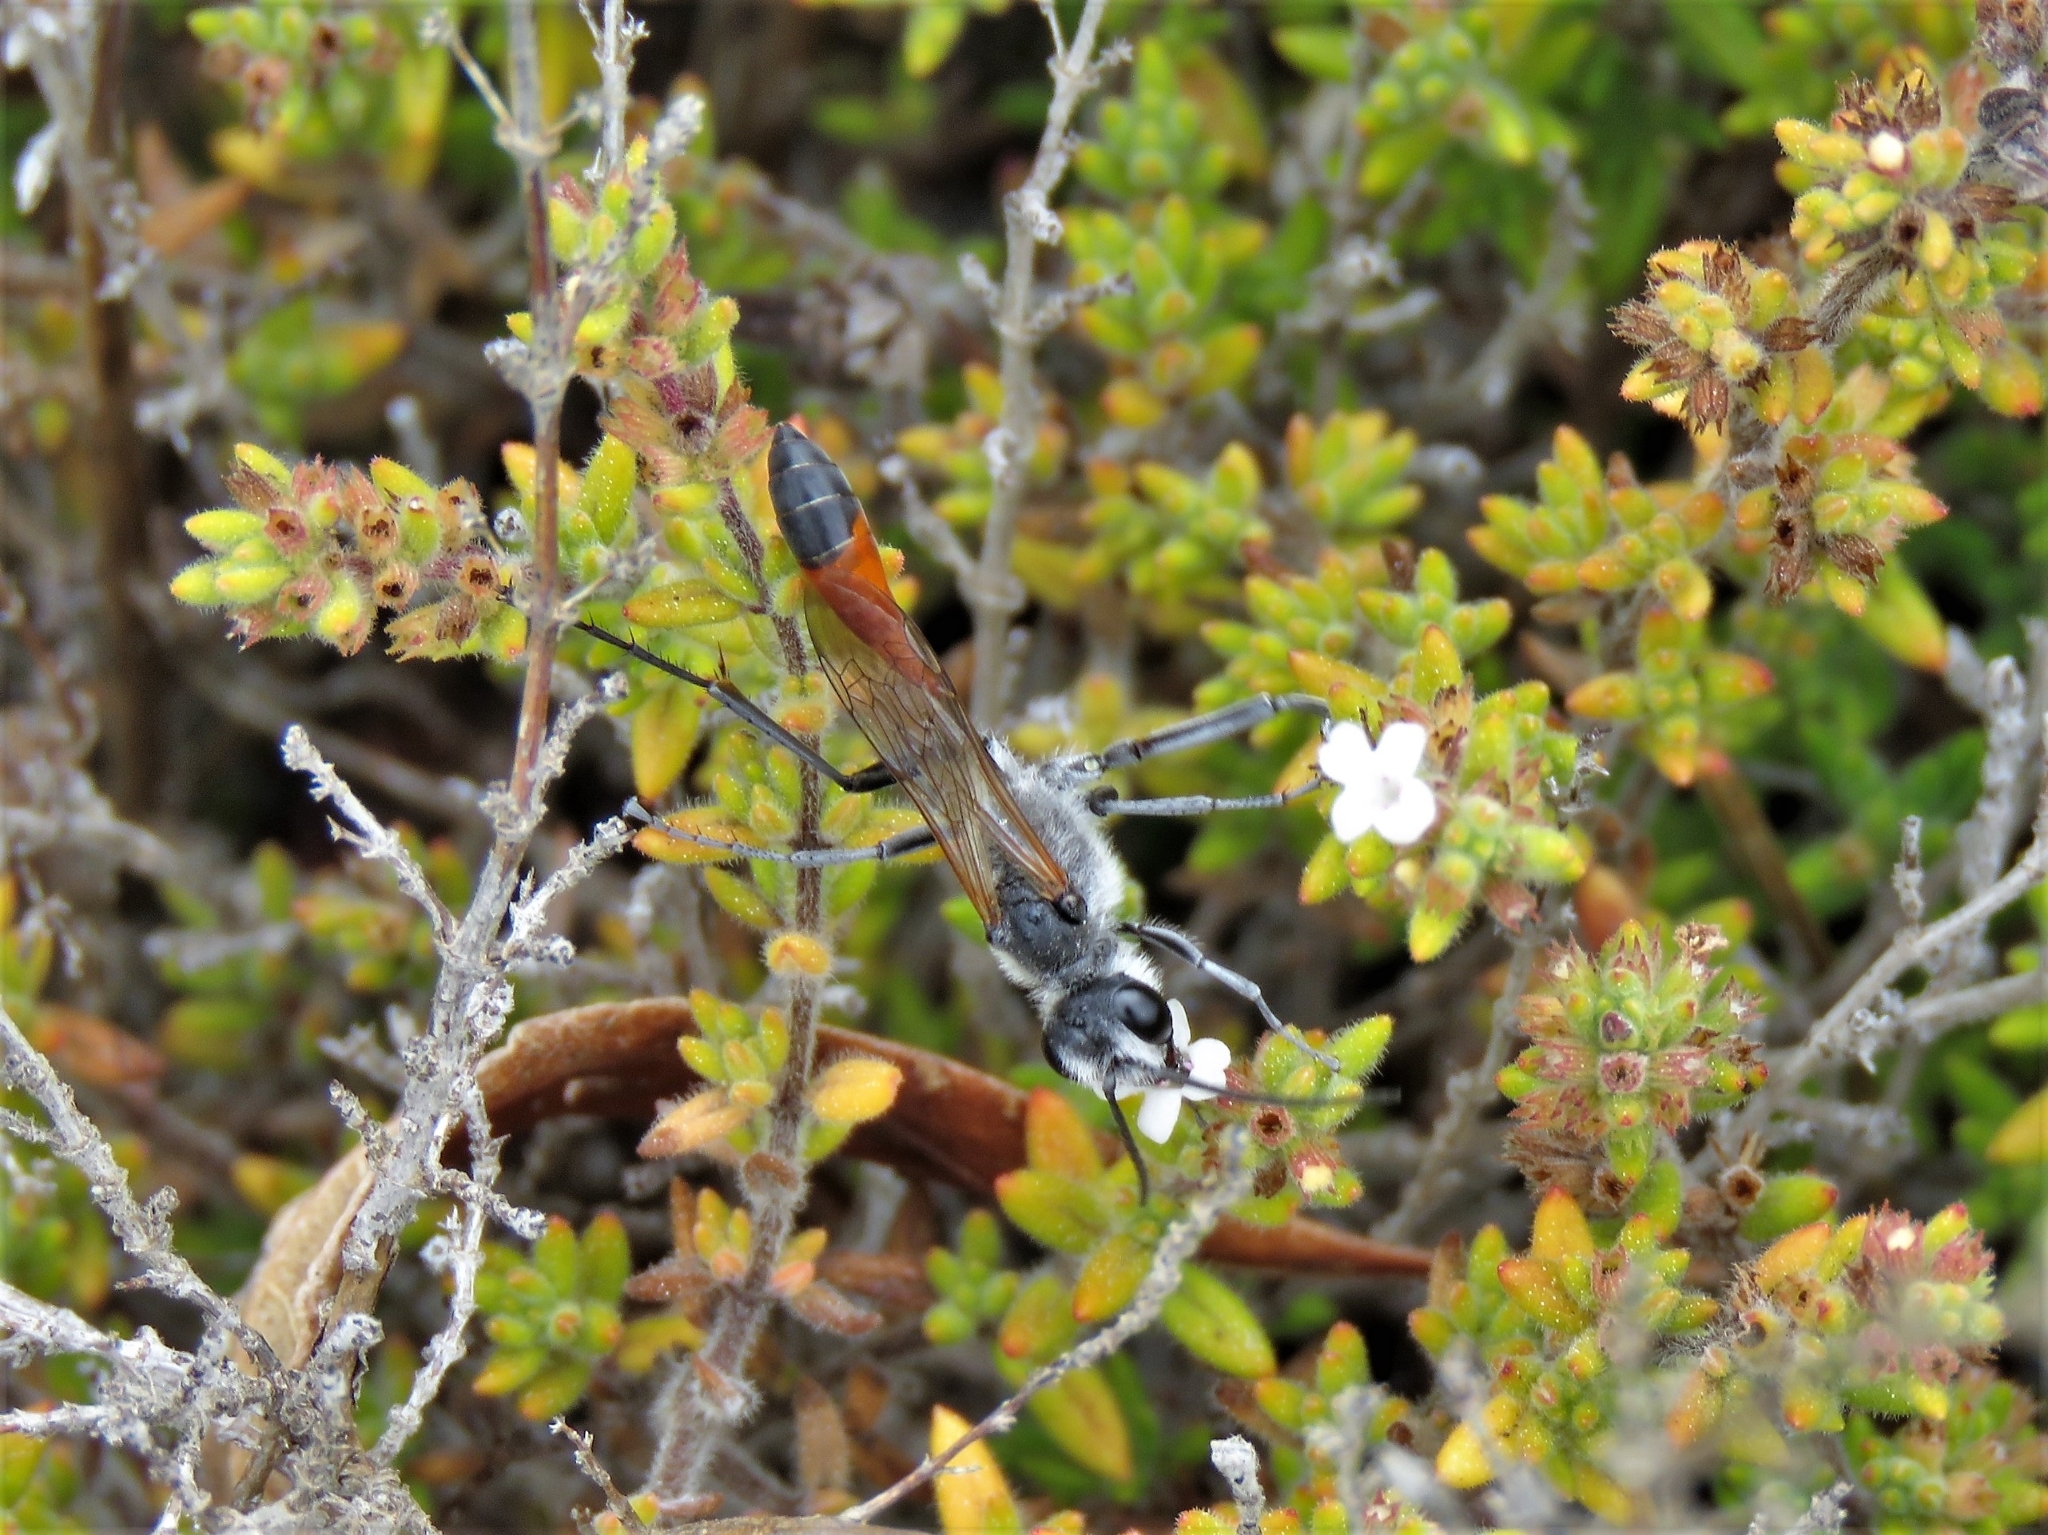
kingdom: Animalia
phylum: Arthropoda
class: Insecta
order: Hymenoptera
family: Sphecidae
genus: Podalonia
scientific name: Podalonia tydei
